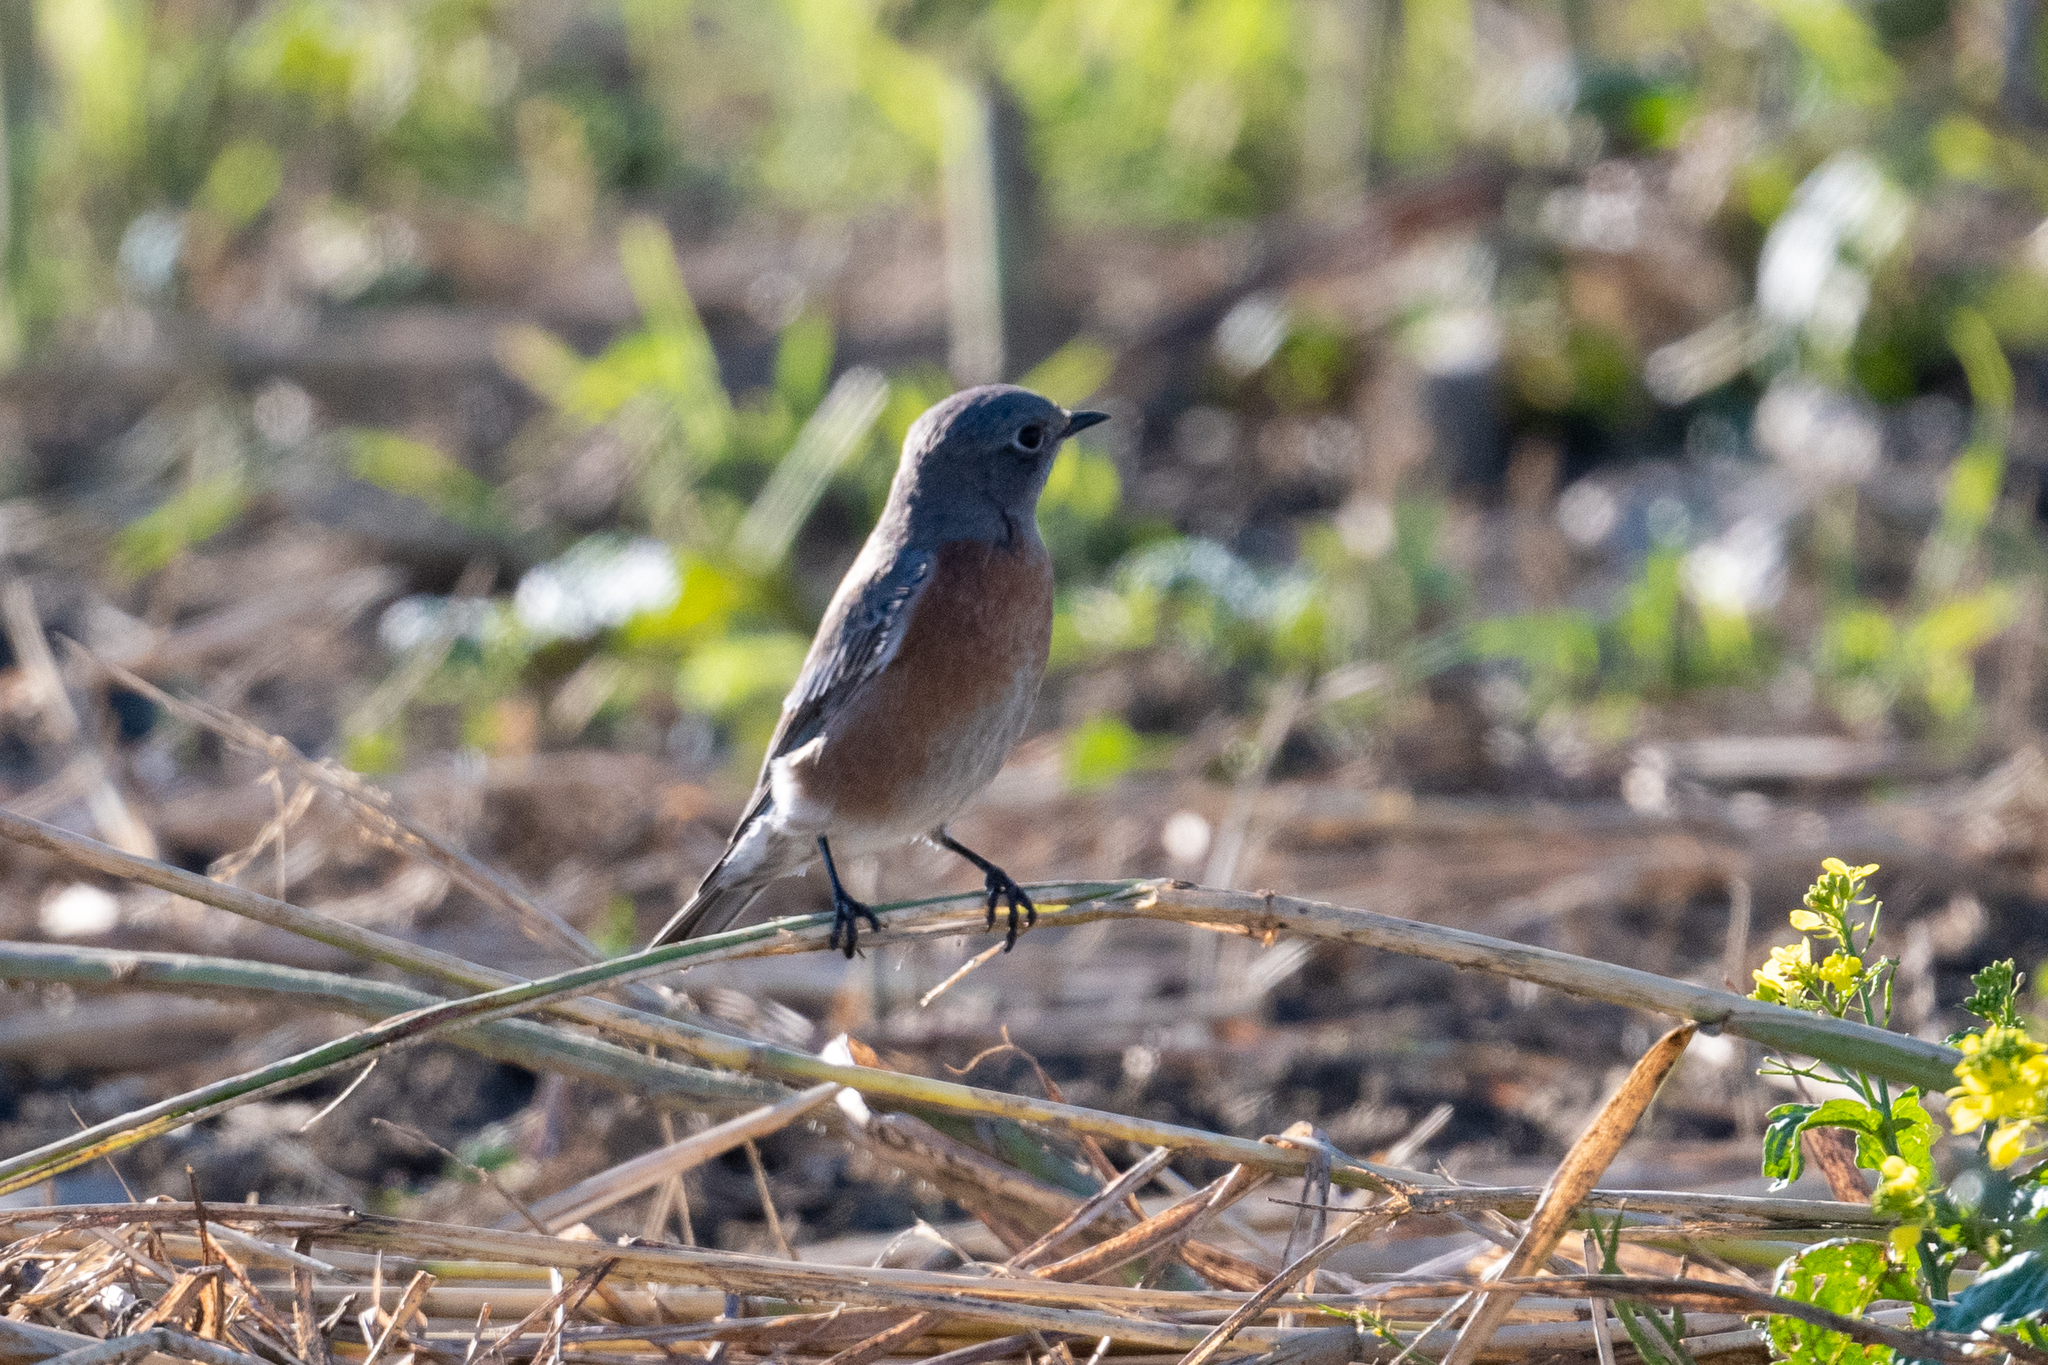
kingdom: Animalia
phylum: Chordata
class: Aves
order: Passeriformes
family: Turdidae
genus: Sialia
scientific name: Sialia mexicana
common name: Western bluebird
